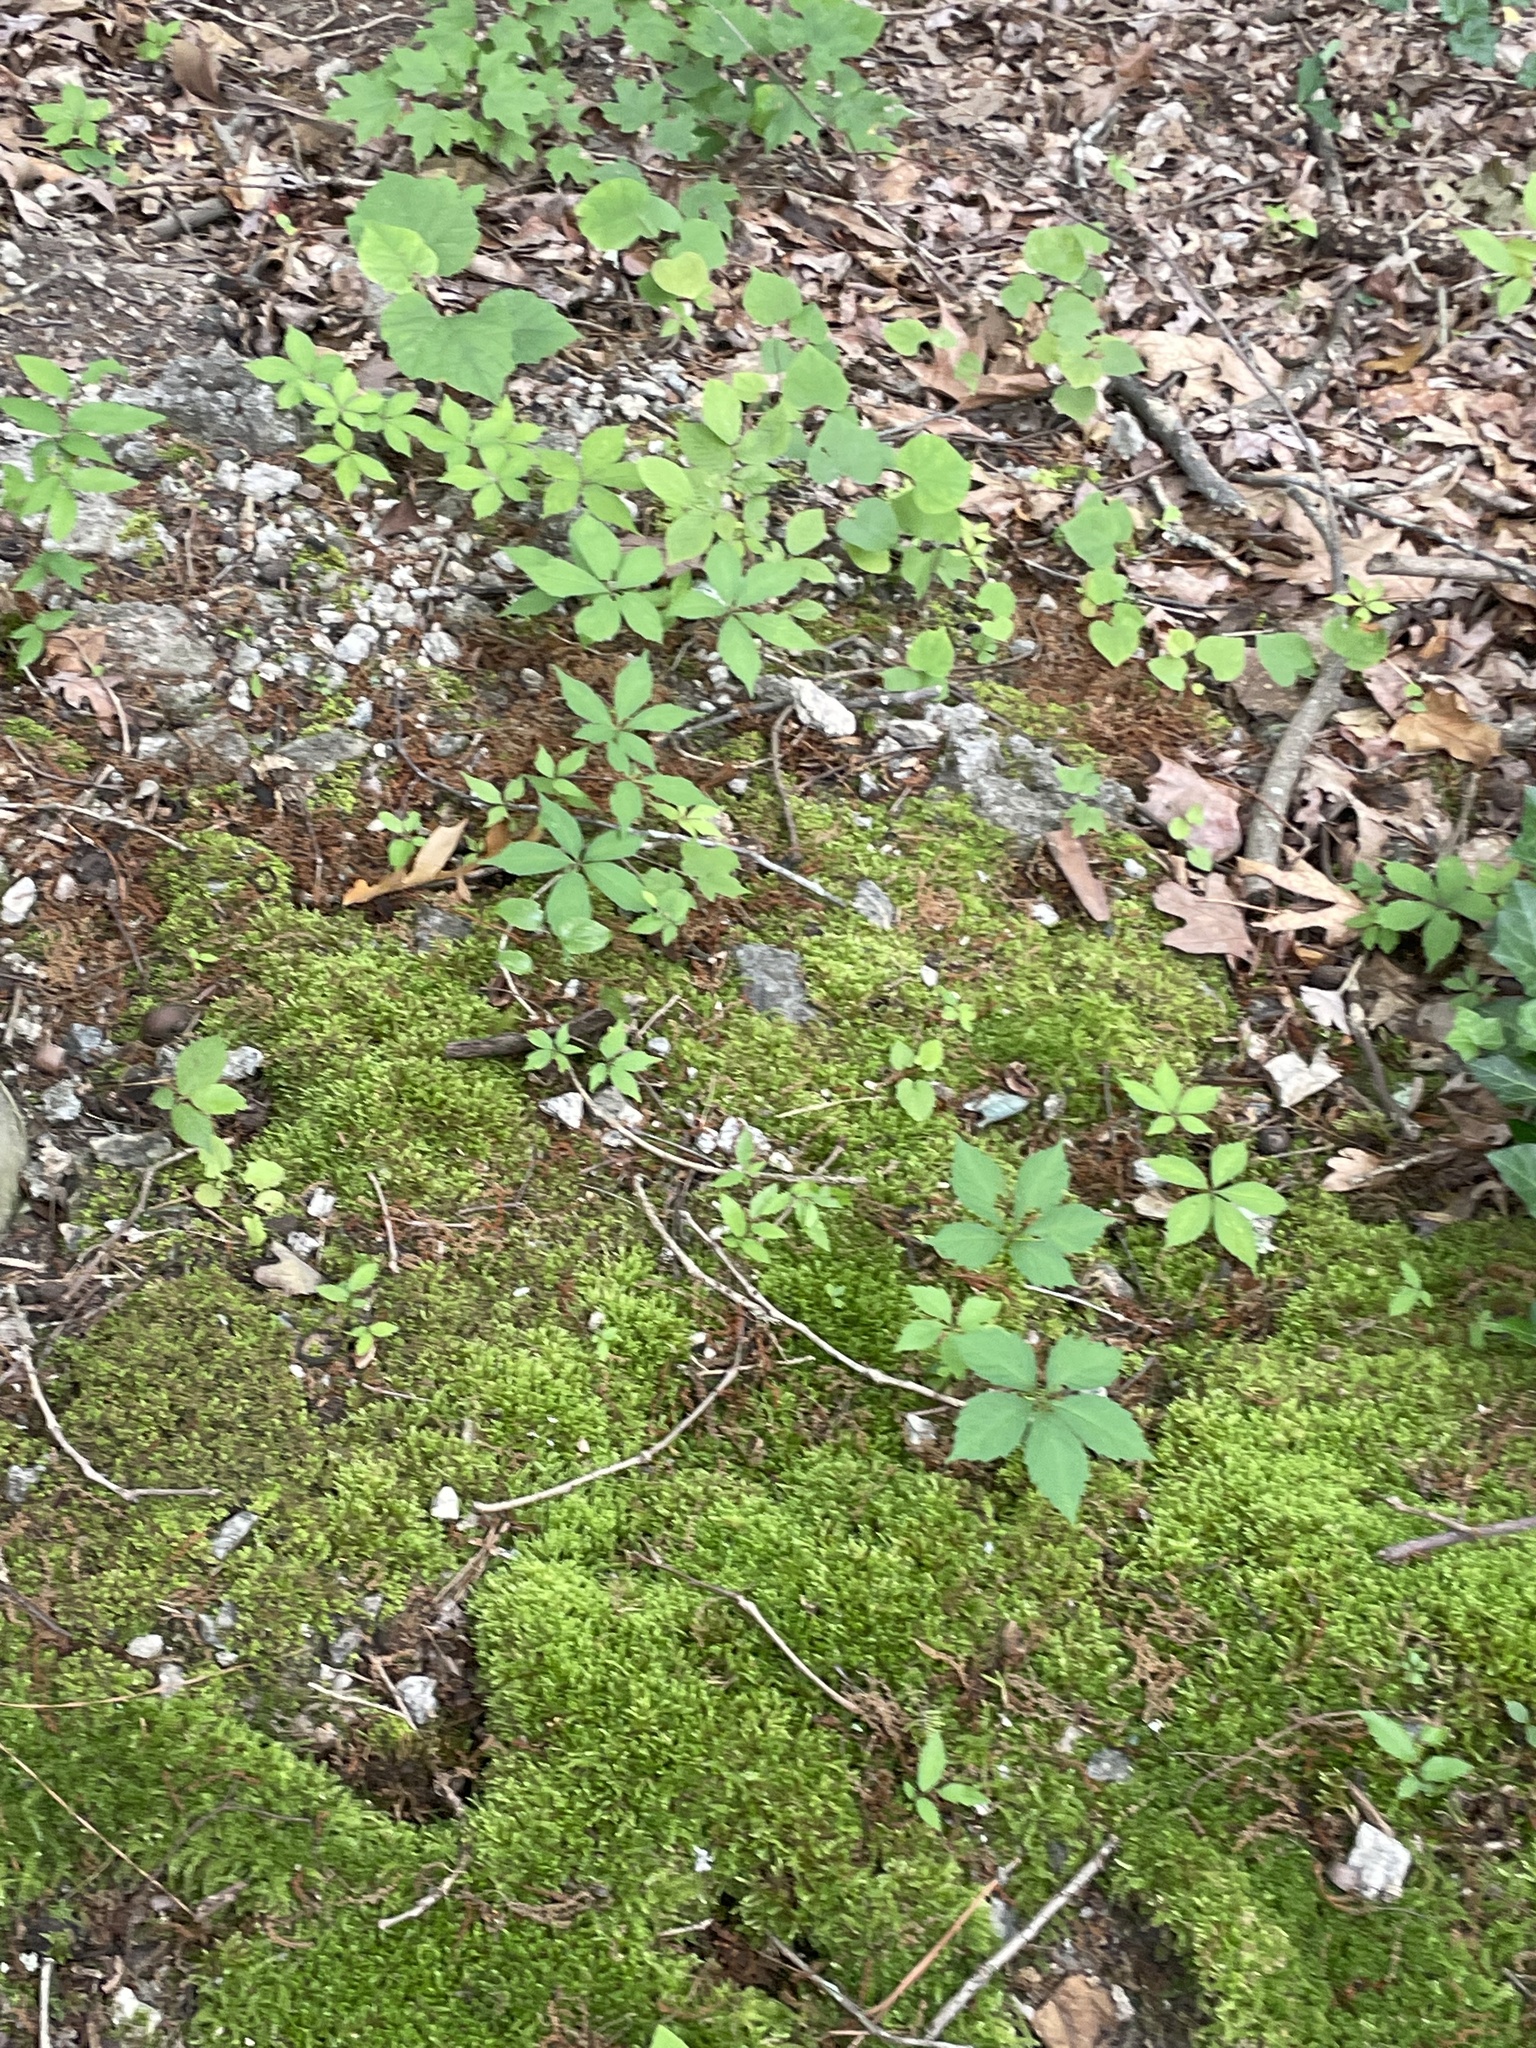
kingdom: Plantae
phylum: Tracheophyta
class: Magnoliopsida
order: Vitales
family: Vitaceae
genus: Parthenocissus
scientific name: Parthenocissus quinquefolia
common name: Virginia-creeper
